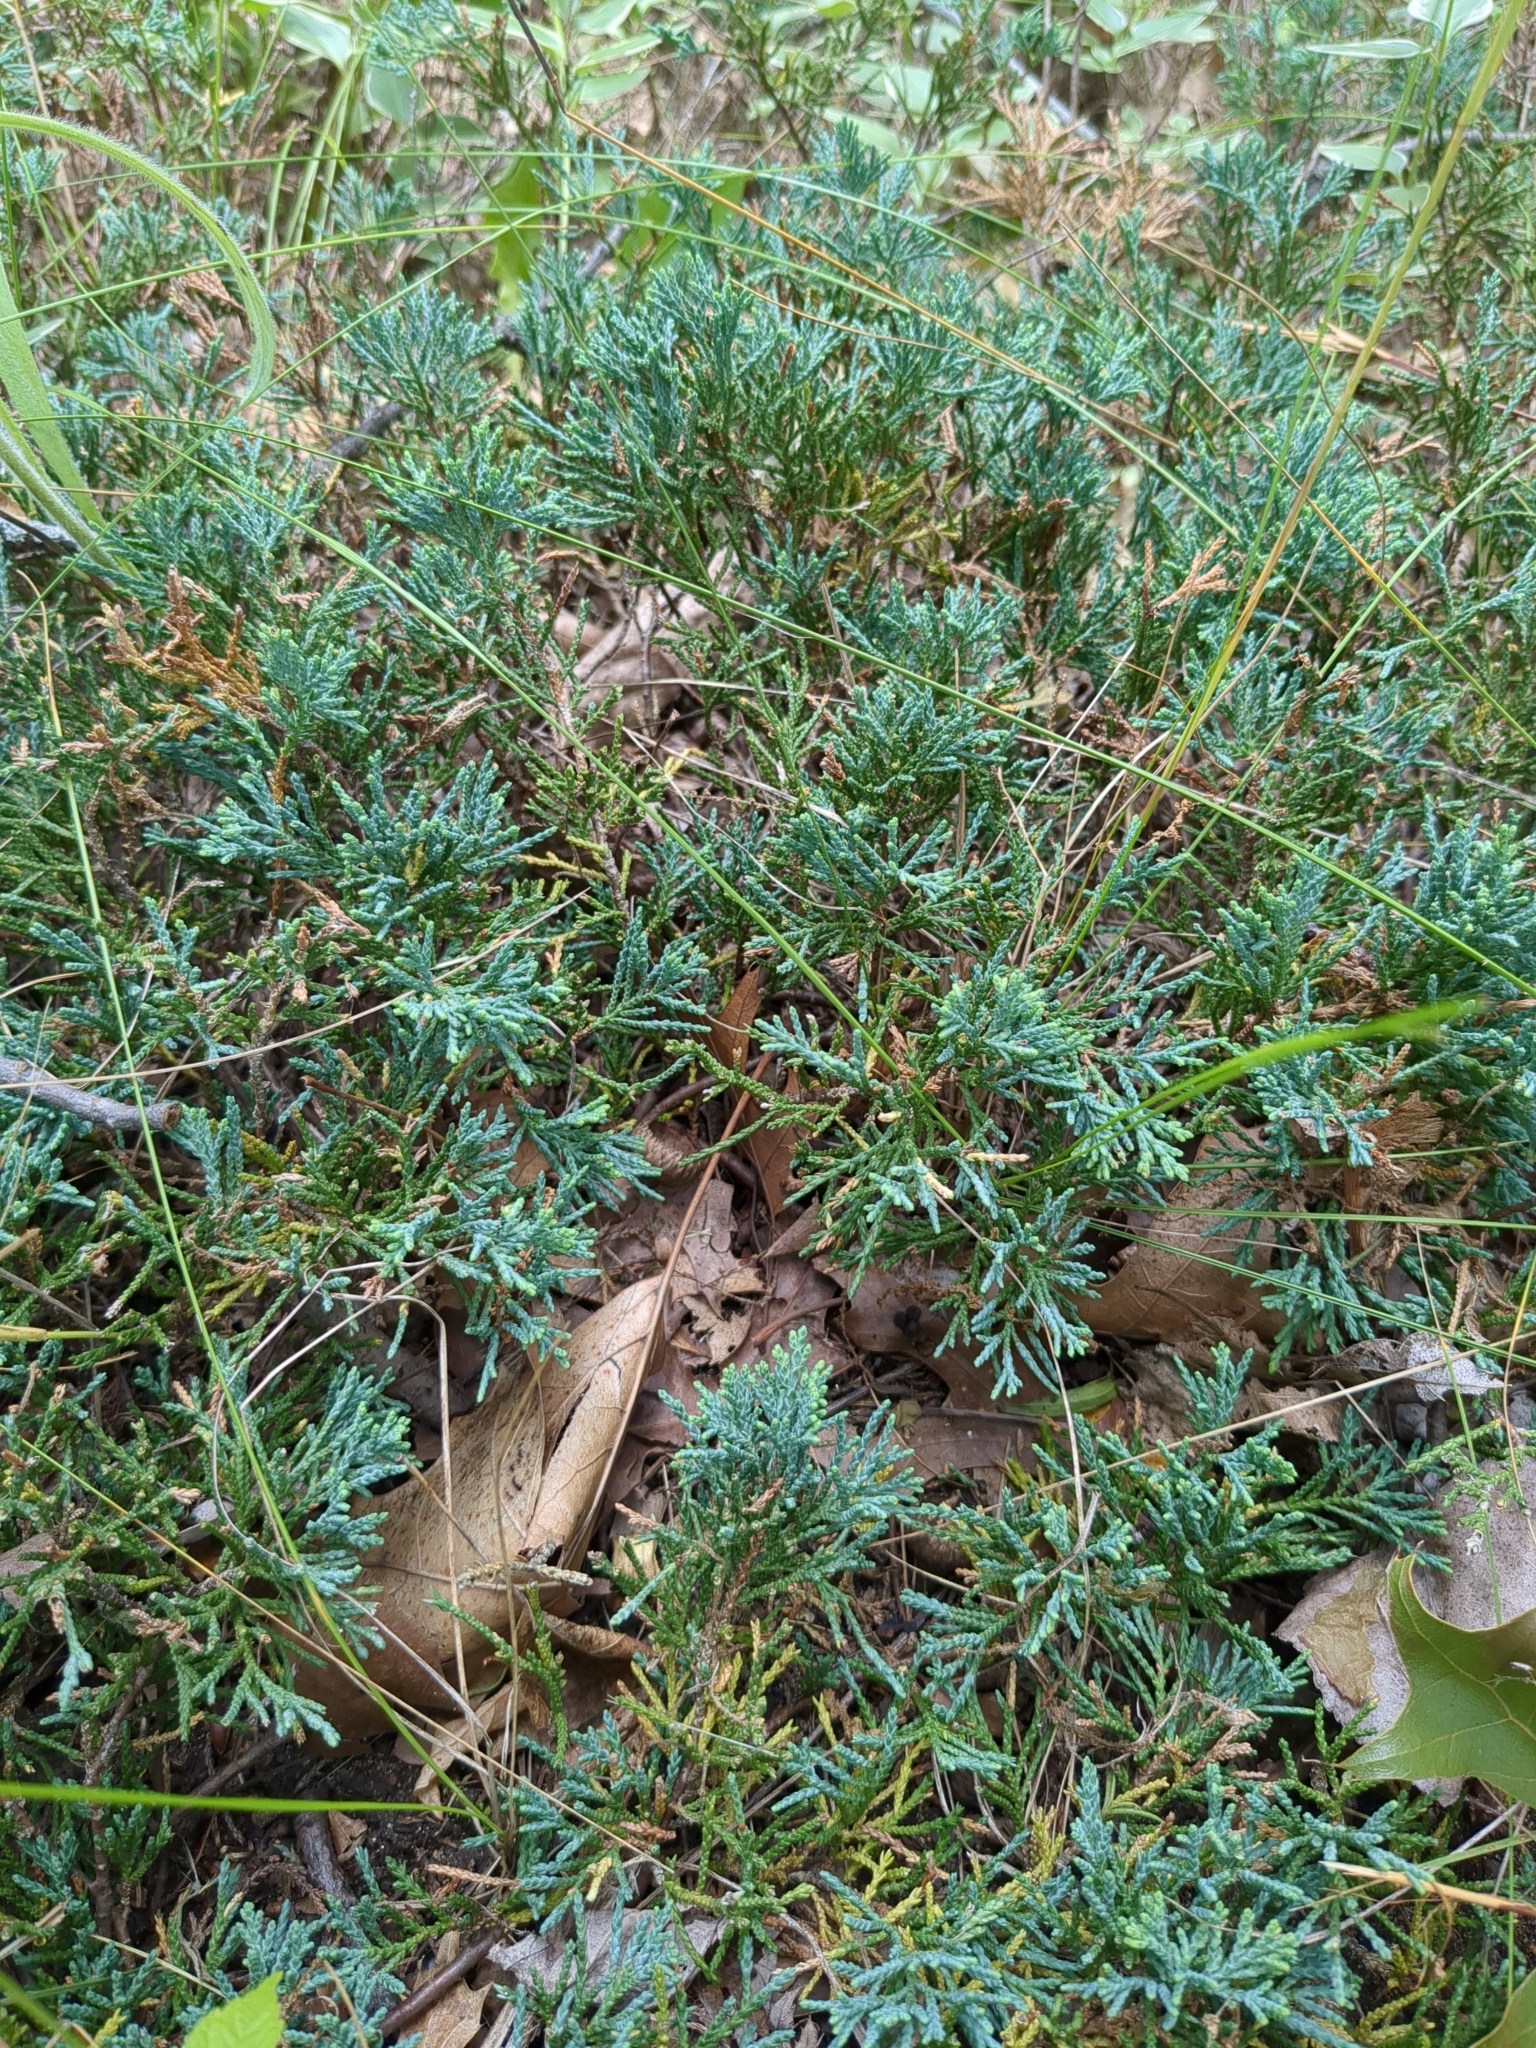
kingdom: Plantae
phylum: Tracheophyta
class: Pinopsida
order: Pinales
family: Cupressaceae
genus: Juniperus
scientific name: Juniperus horizontalis
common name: Creeping juniper
